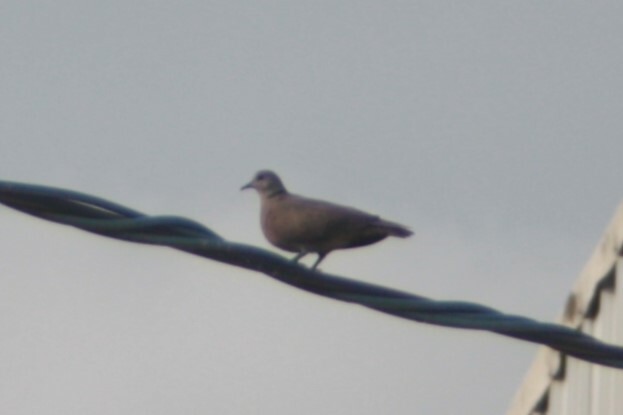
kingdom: Animalia
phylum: Chordata
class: Aves
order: Columbiformes
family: Columbidae
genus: Streptopelia
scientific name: Streptopelia tranquebarica
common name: Red turtle dove
